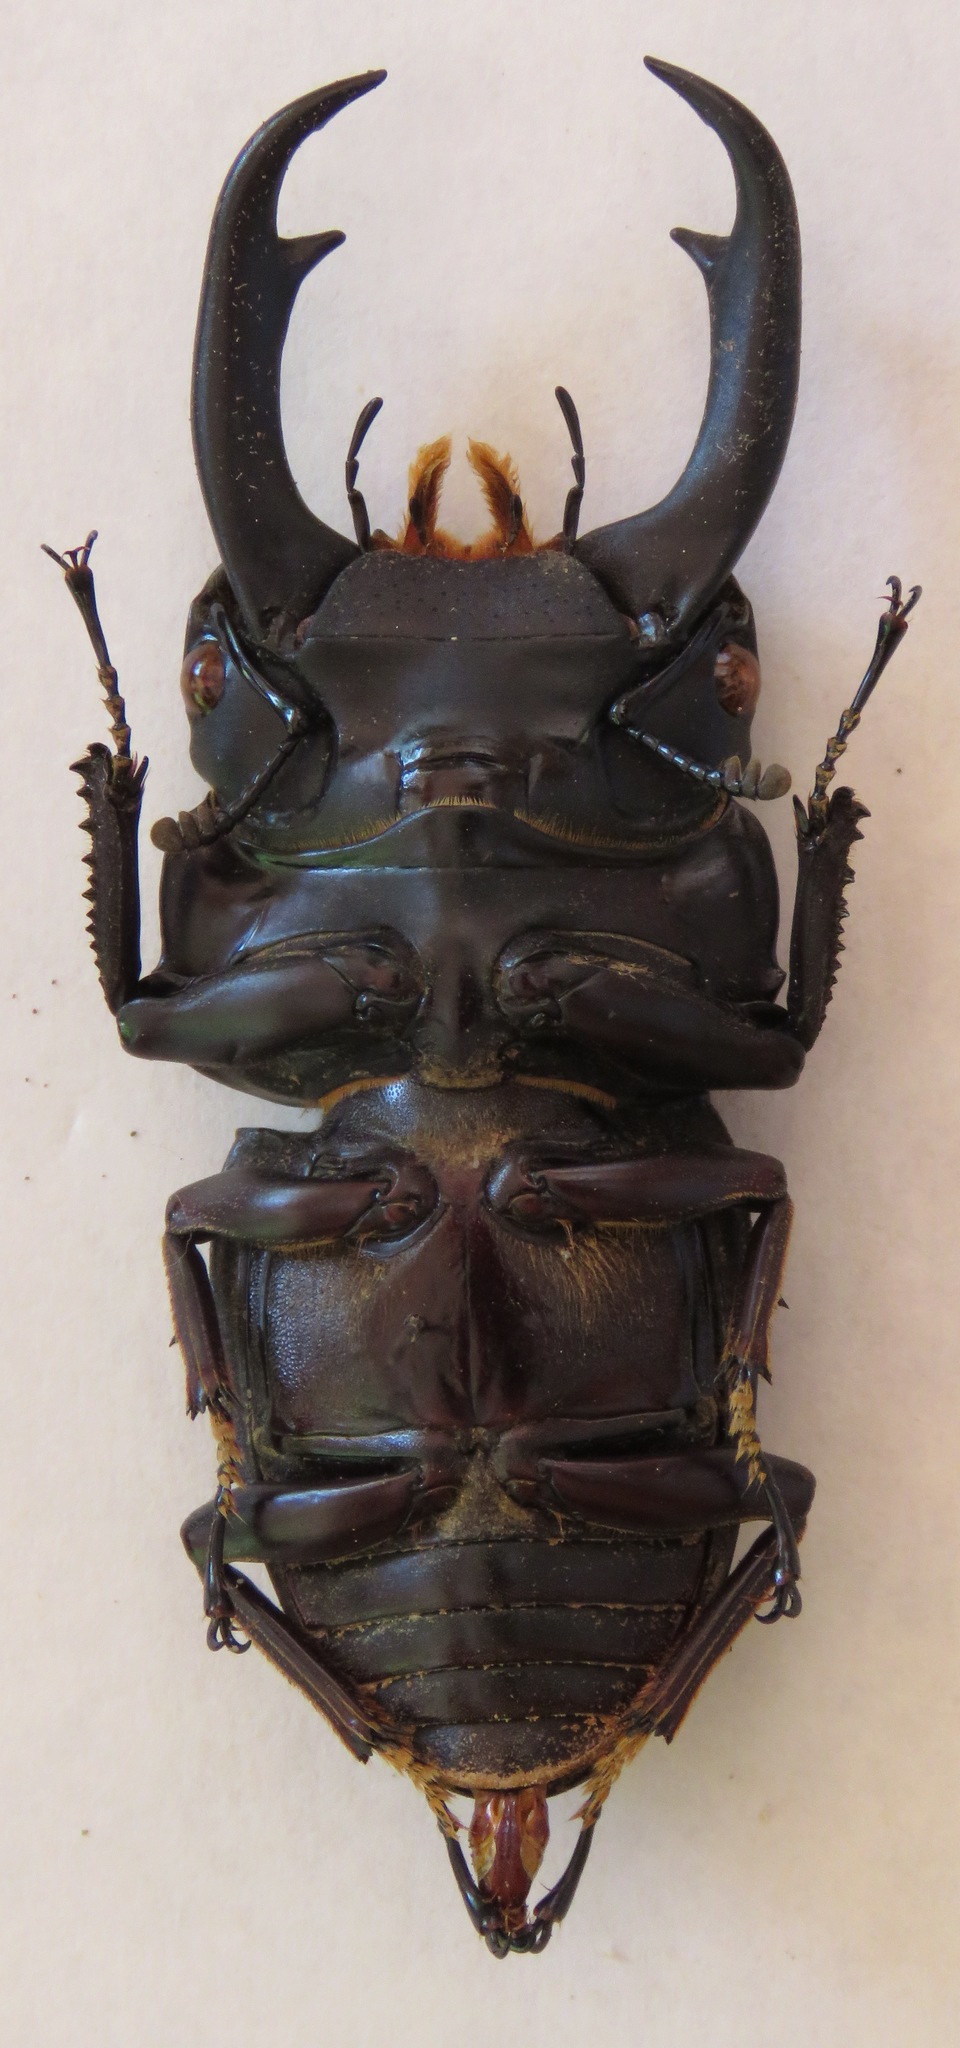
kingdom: Animalia
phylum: Arthropoda
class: Insecta
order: Coleoptera
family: Lucanidae
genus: Dorcus
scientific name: Dorcus ritsemae
